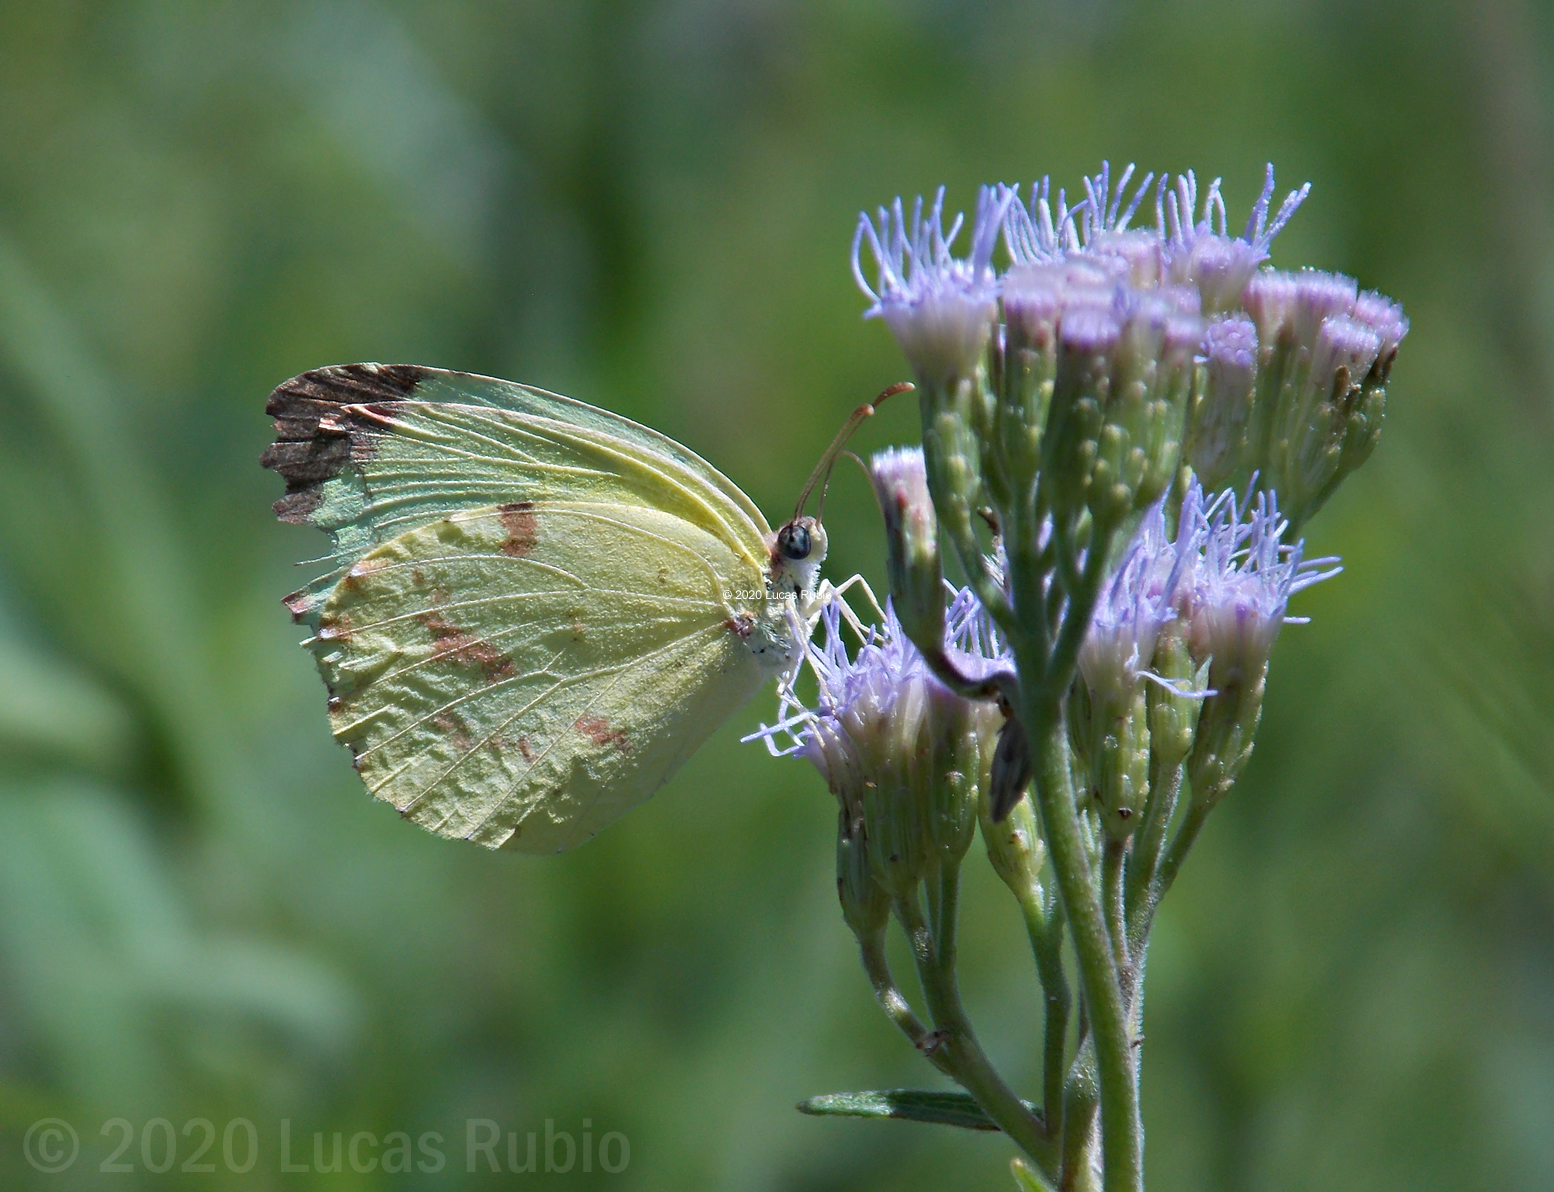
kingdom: Animalia
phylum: Arthropoda
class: Insecta
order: Lepidoptera
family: Pieridae
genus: Teriocolias
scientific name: Teriocolias
